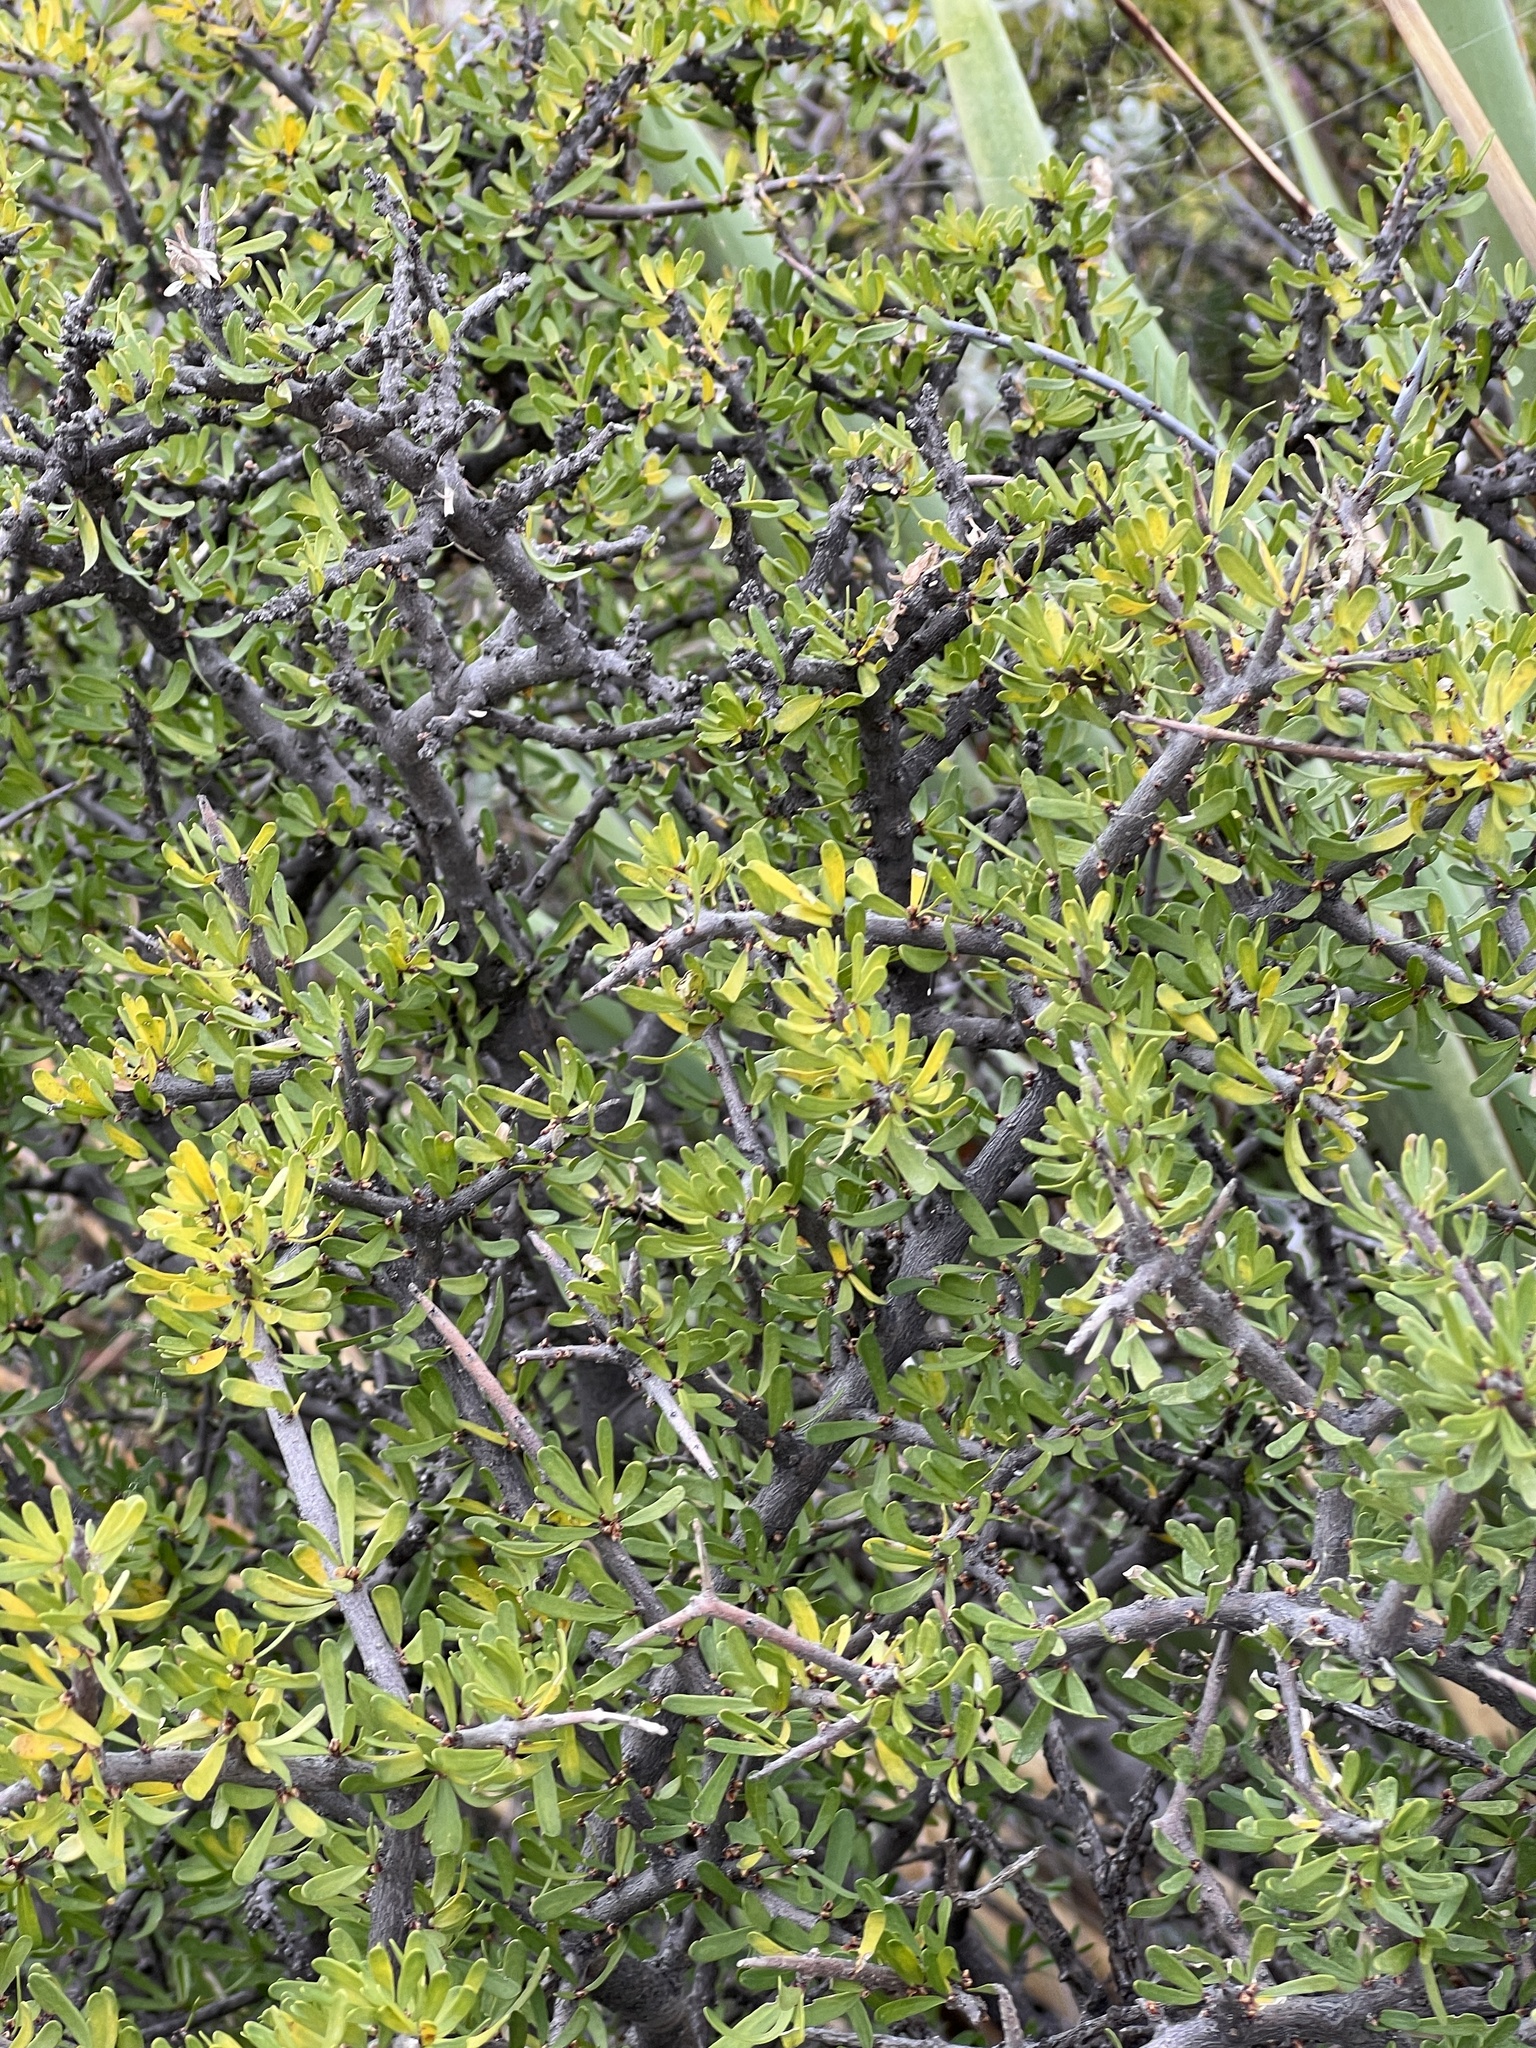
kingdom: Plantae
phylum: Tracheophyta
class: Magnoliopsida
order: Lamiales
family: Oleaceae
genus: Forestiera
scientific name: Forestiera angustifolia
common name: Elbowbush
